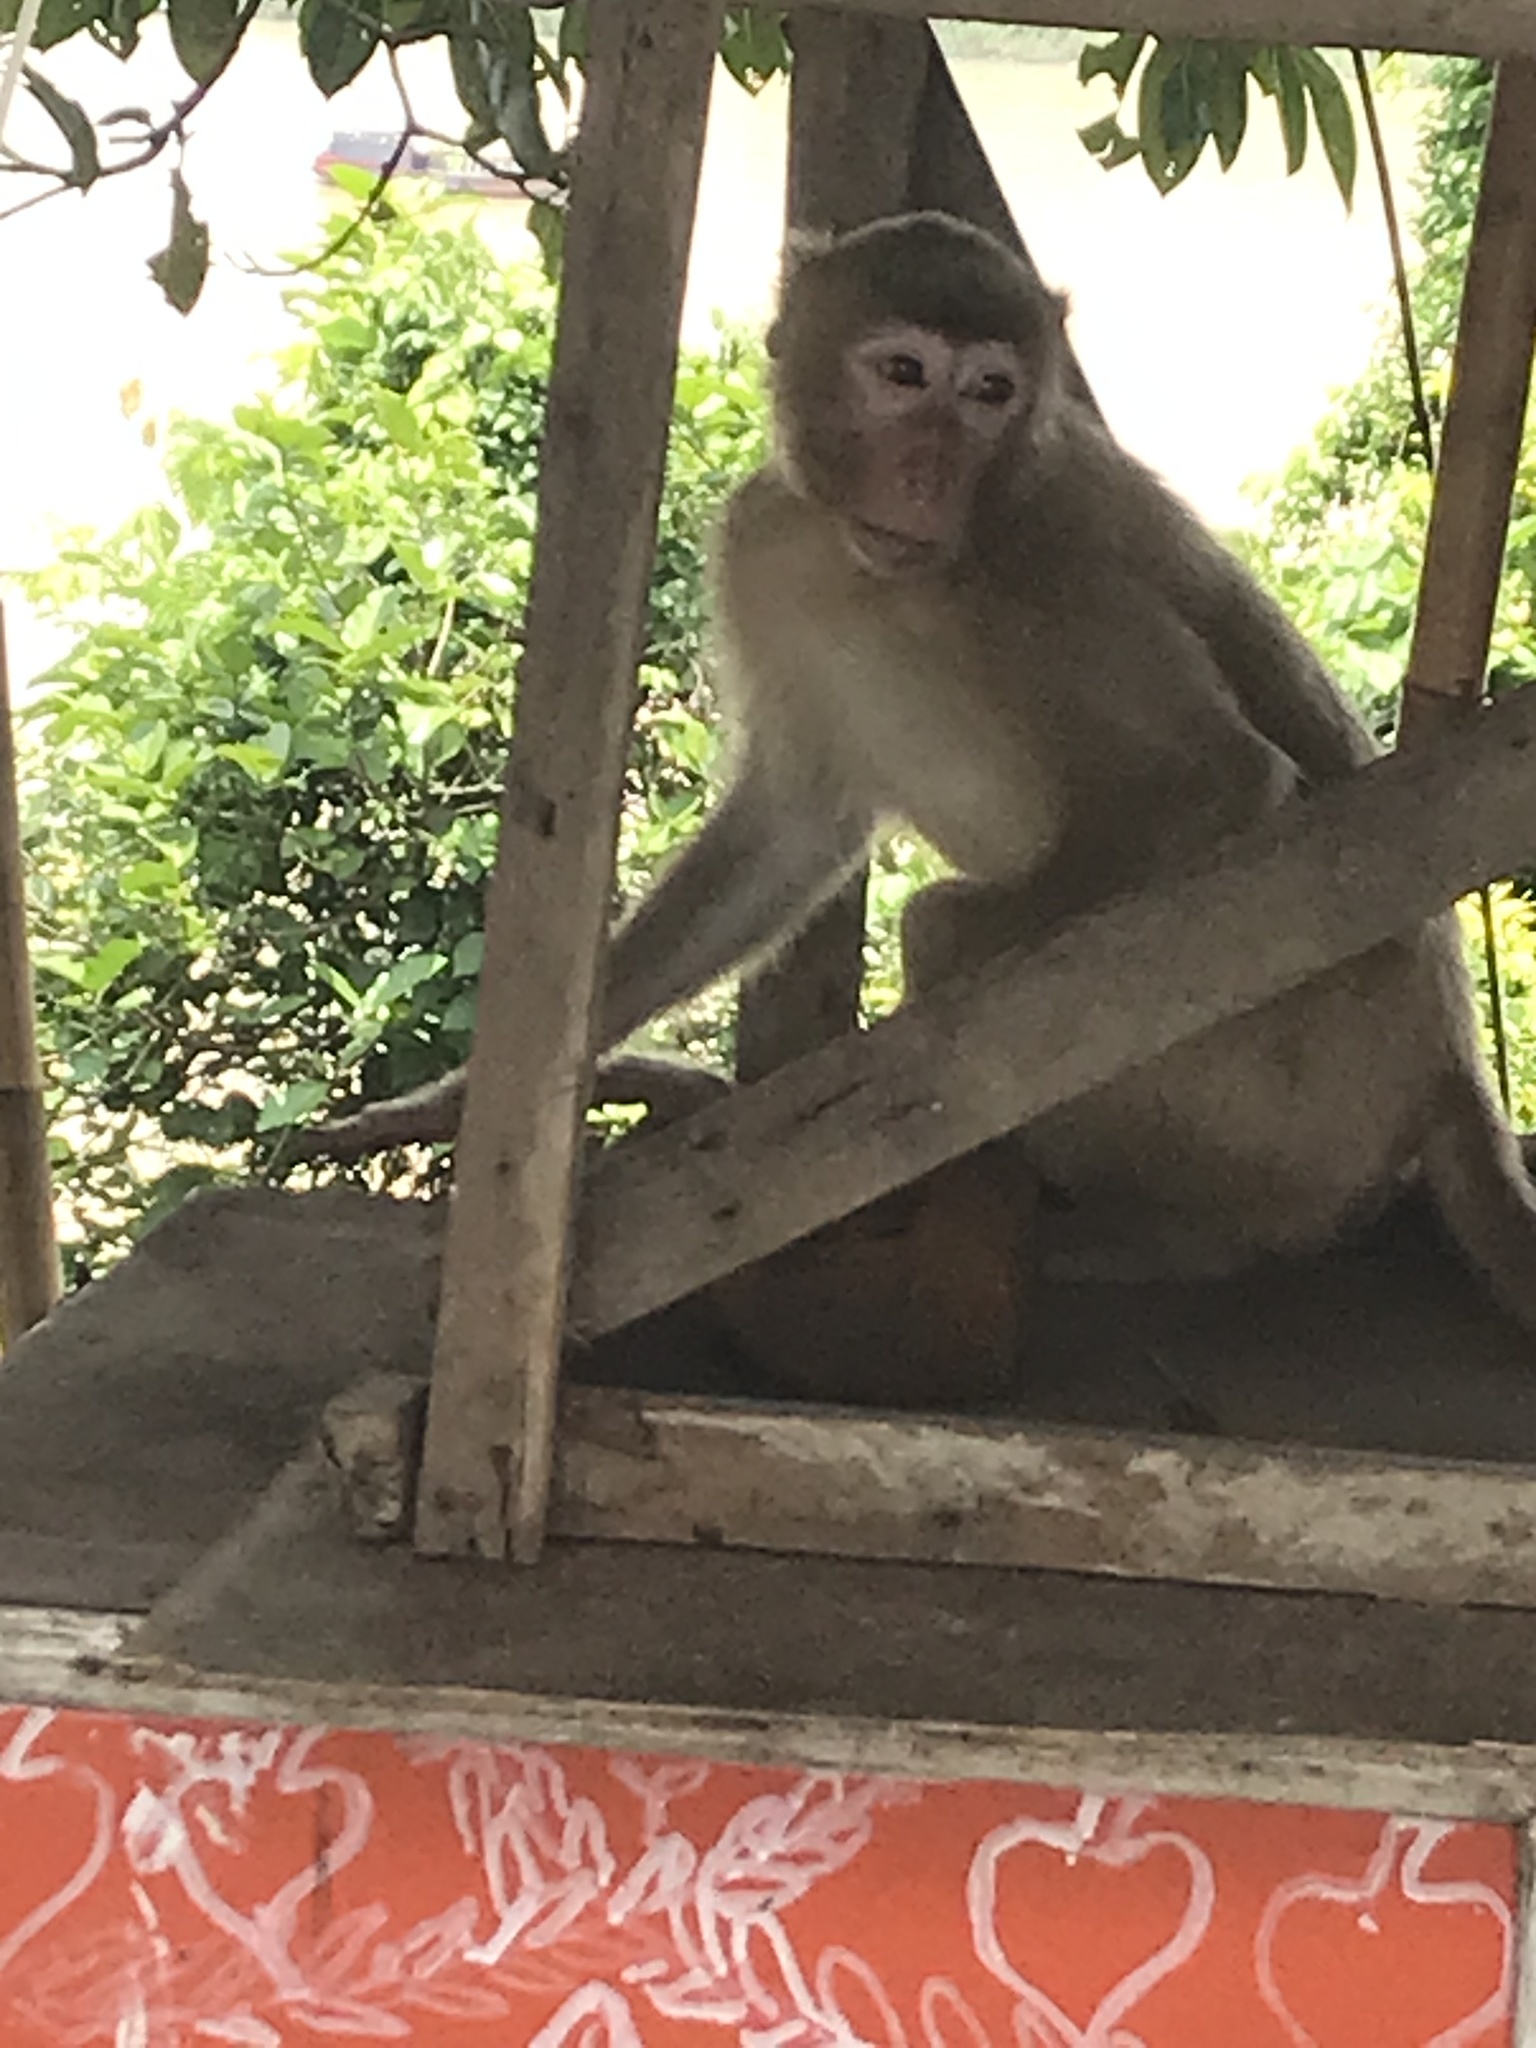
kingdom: Animalia
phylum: Chordata
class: Mammalia
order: Primates
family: Cercopithecidae
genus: Macaca
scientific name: Macaca mulatta
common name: Rhesus monkey
